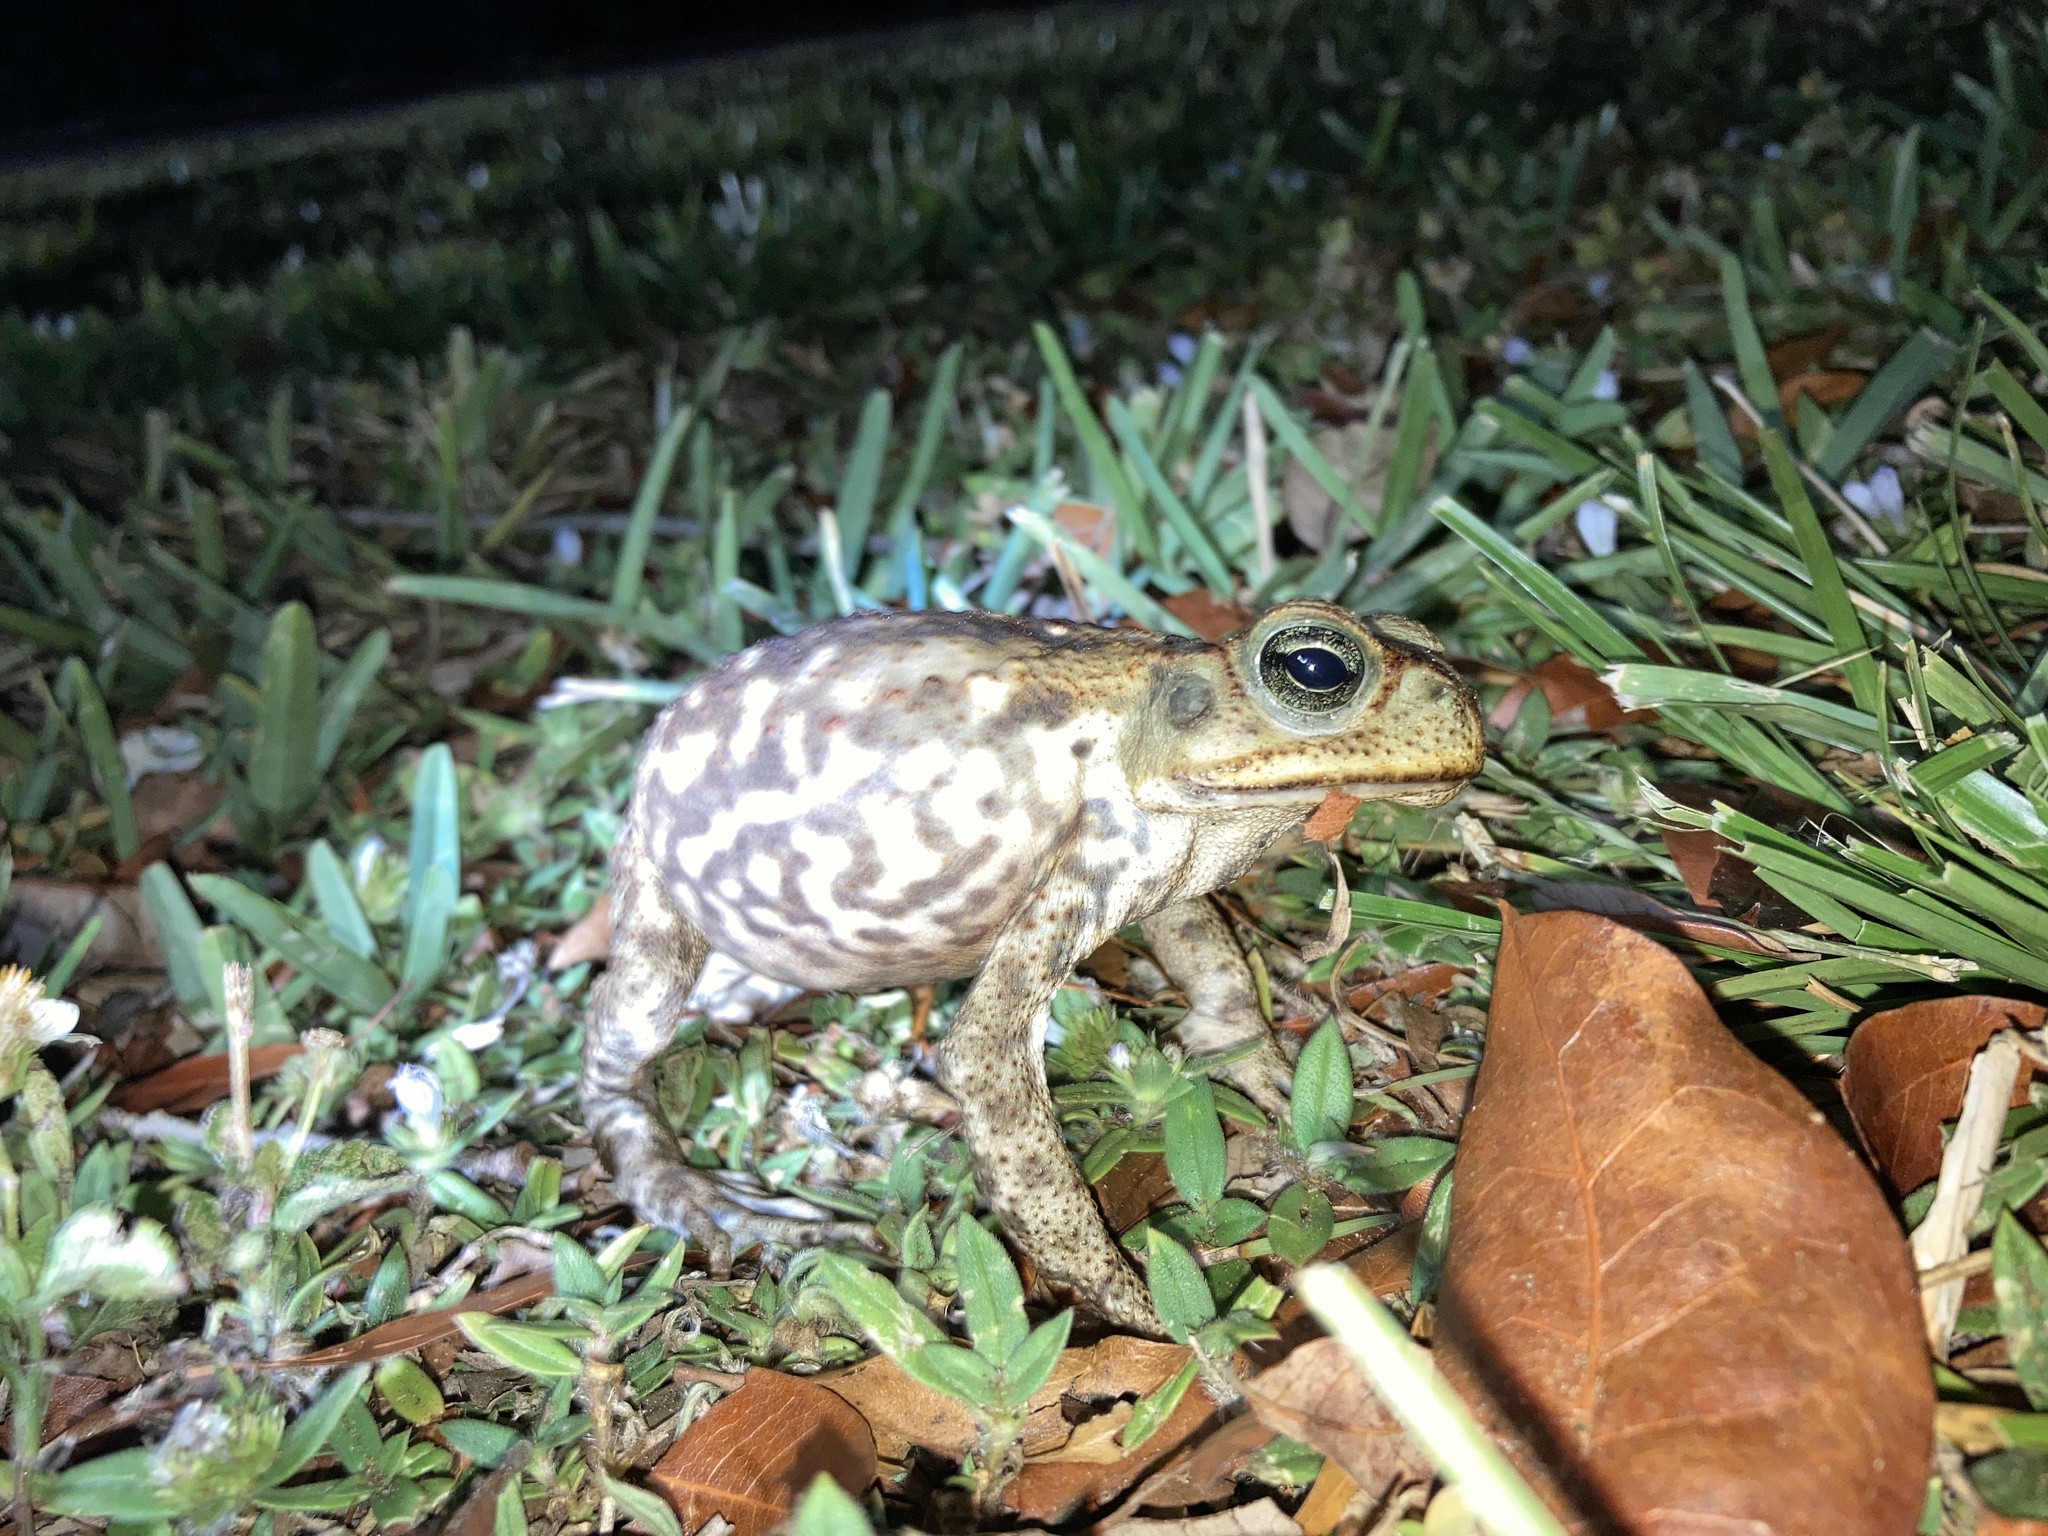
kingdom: Animalia
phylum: Chordata
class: Amphibia
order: Anura
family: Bufonidae
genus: Rhinella
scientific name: Rhinella marina
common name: Cane toad
